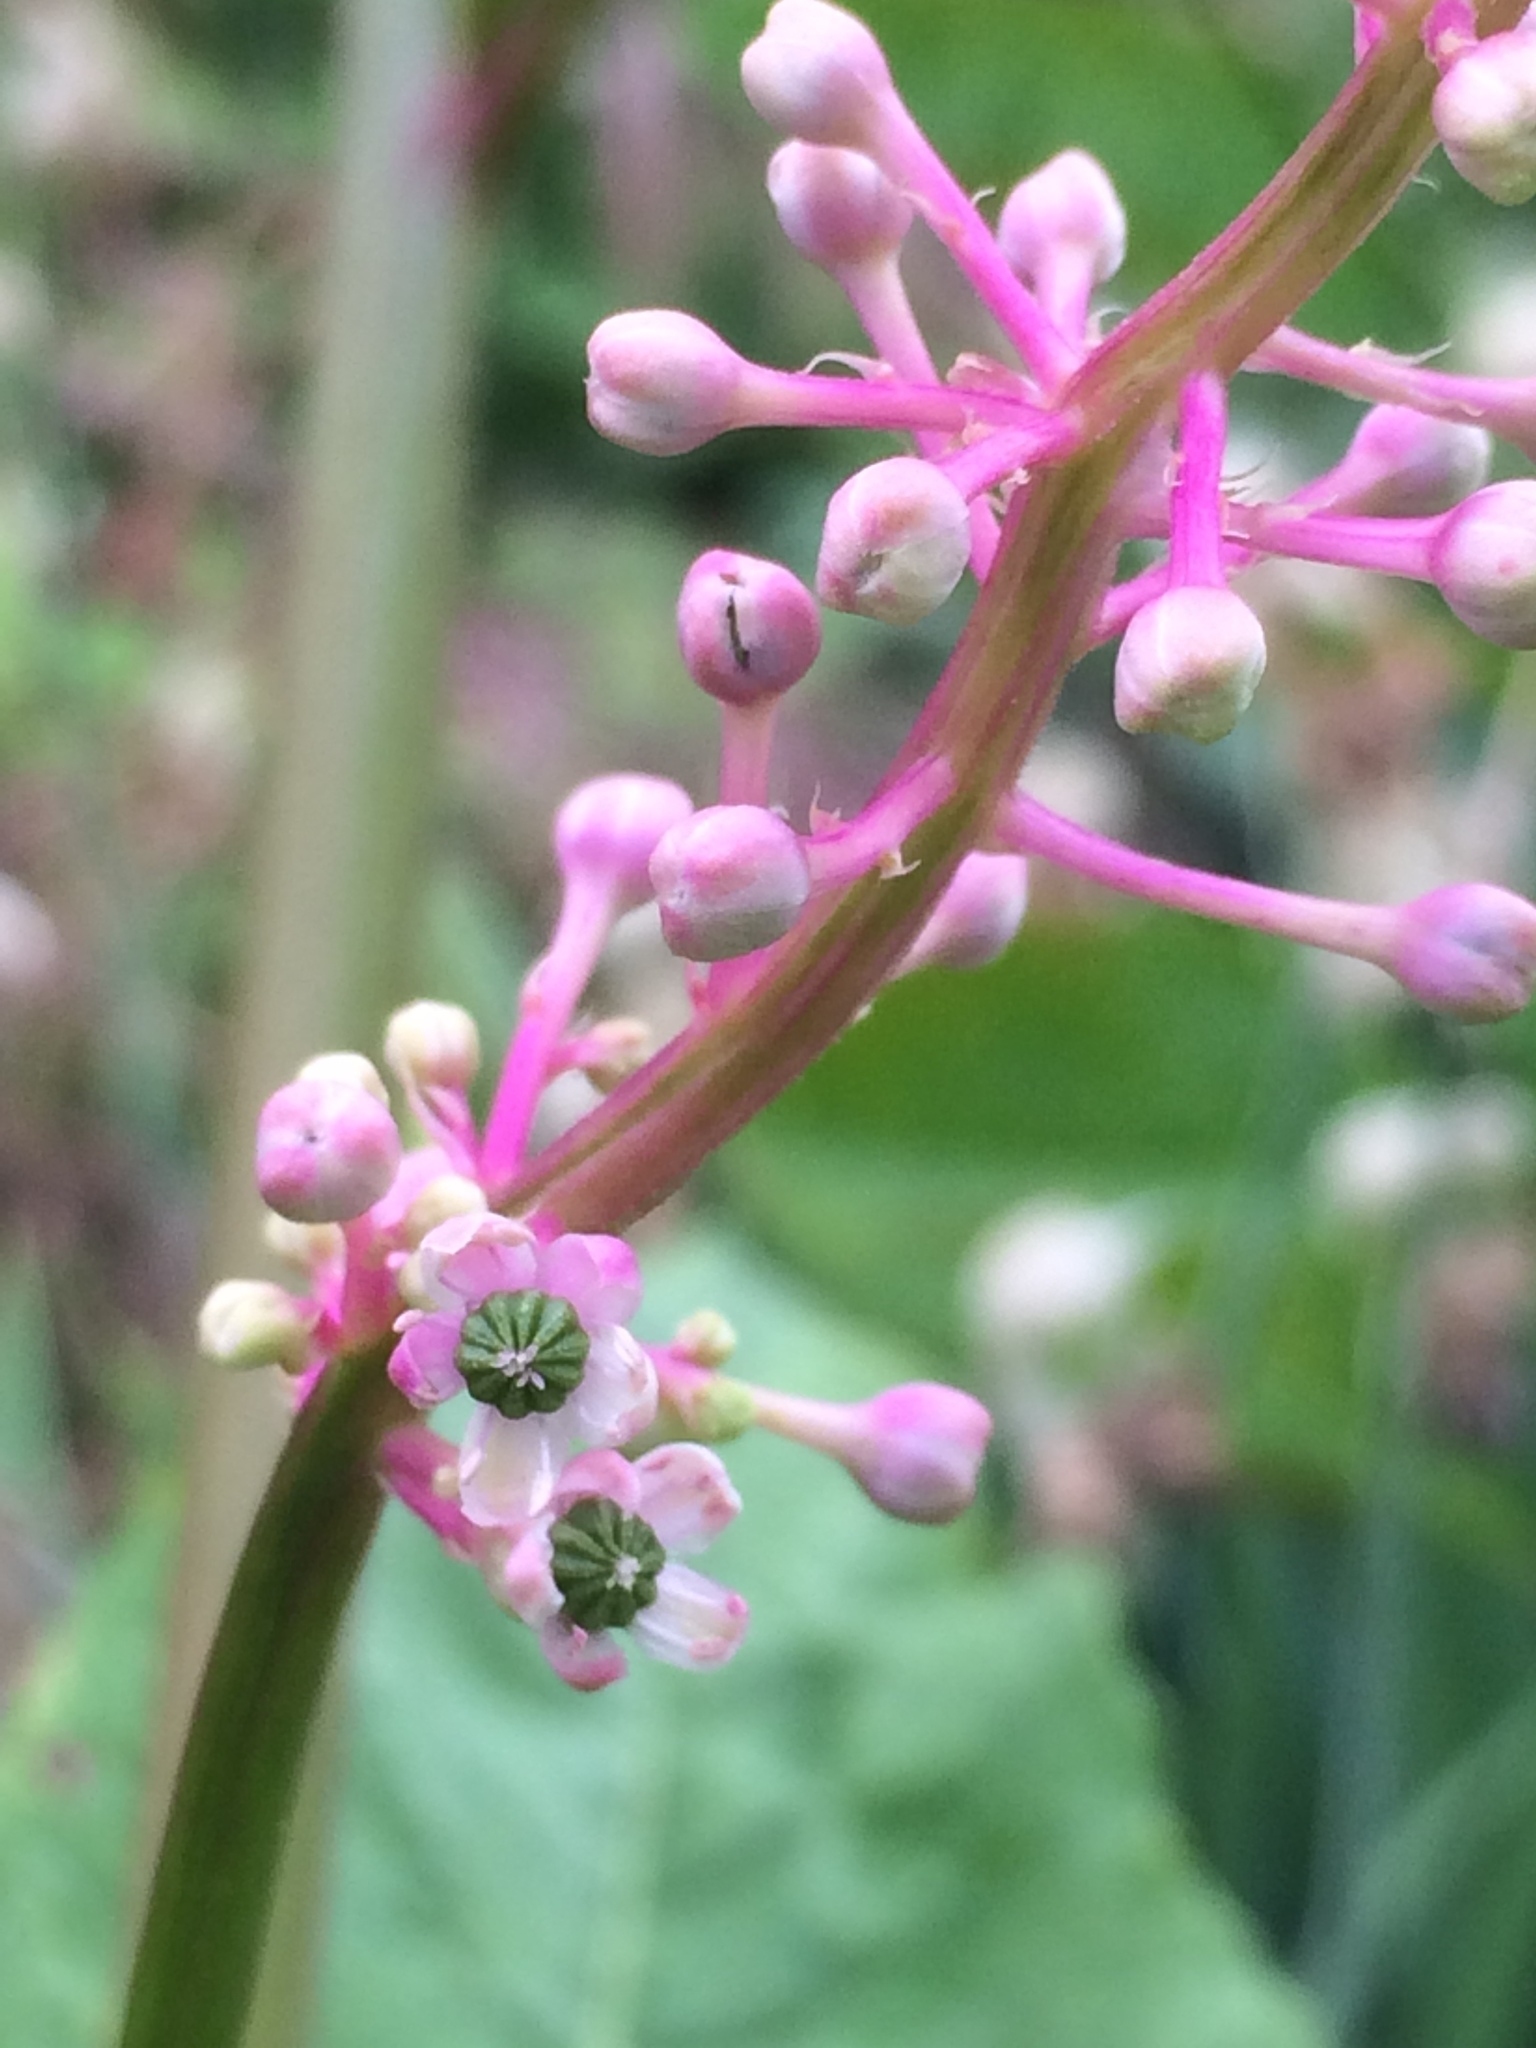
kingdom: Plantae
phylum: Tracheophyta
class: Magnoliopsida
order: Caryophyllales
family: Phytolaccaceae
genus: Phytolacca
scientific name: Phytolacca americana
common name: American pokeweed
